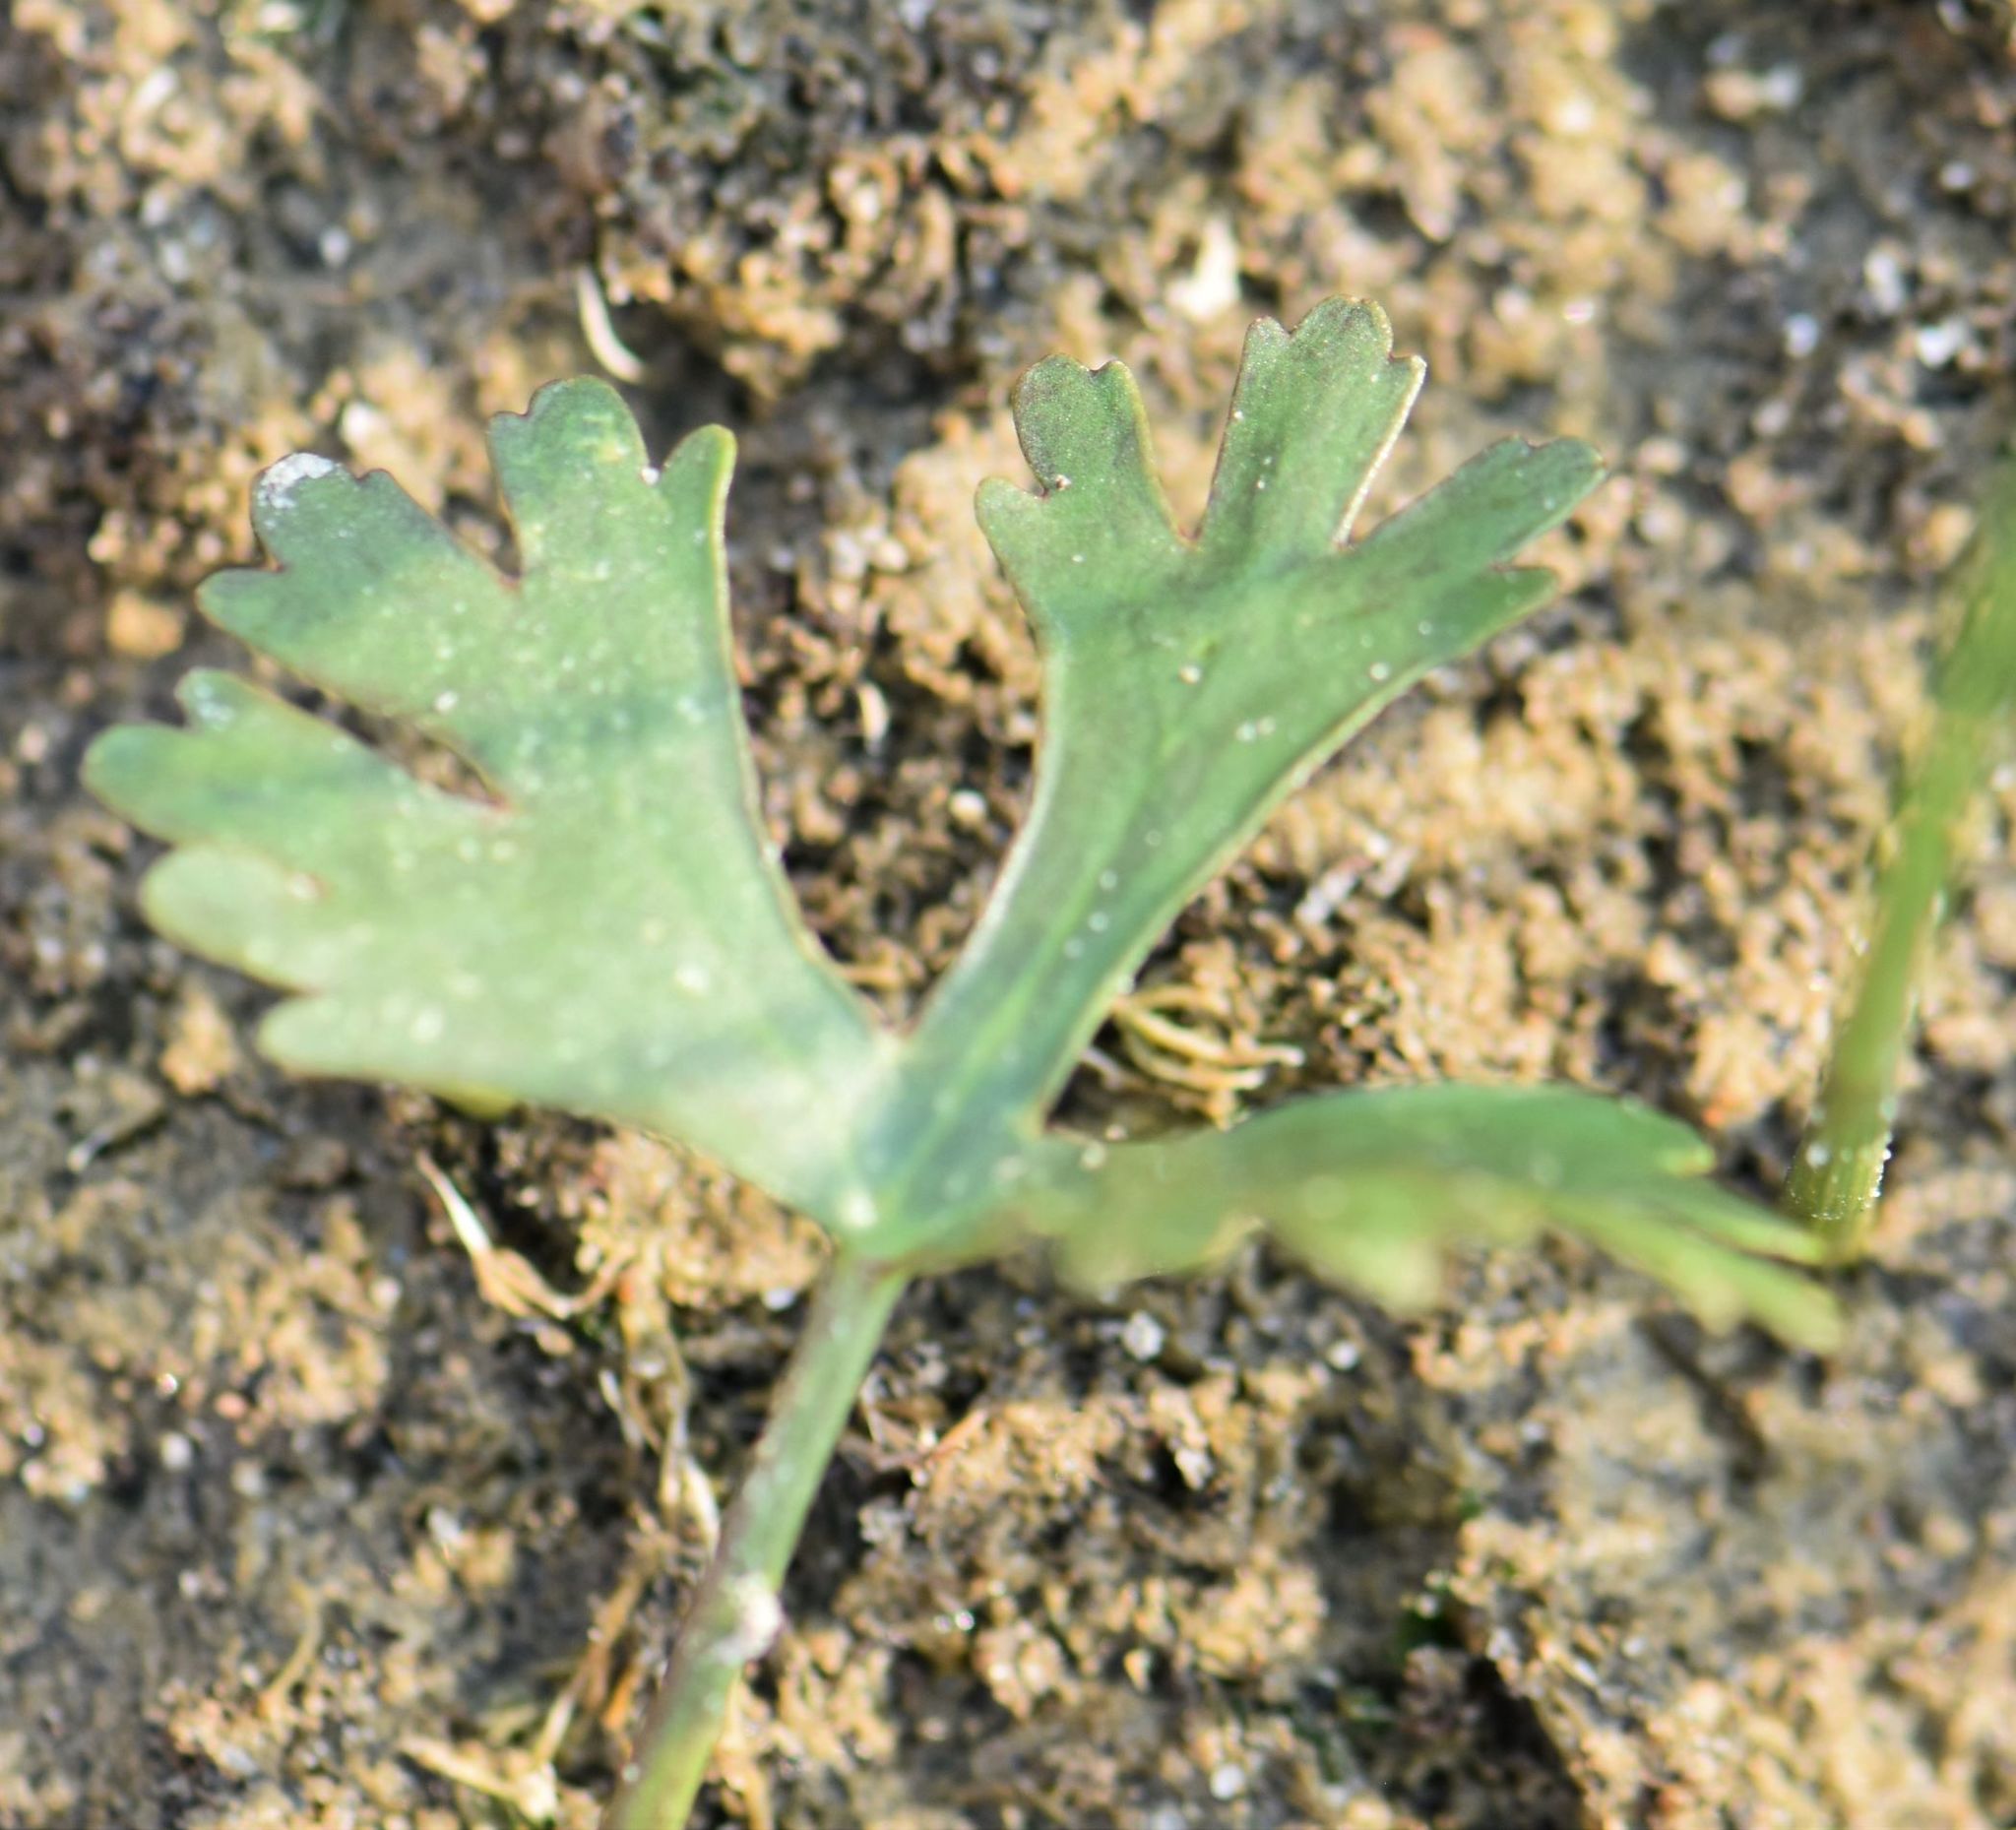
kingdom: Plantae
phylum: Tracheophyta
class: Magnoliopsida
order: Ranunculales
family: Ranunculaceae
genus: Ranunculus
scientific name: Ranunculus sceleratus
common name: Celery-leaved buttercup
